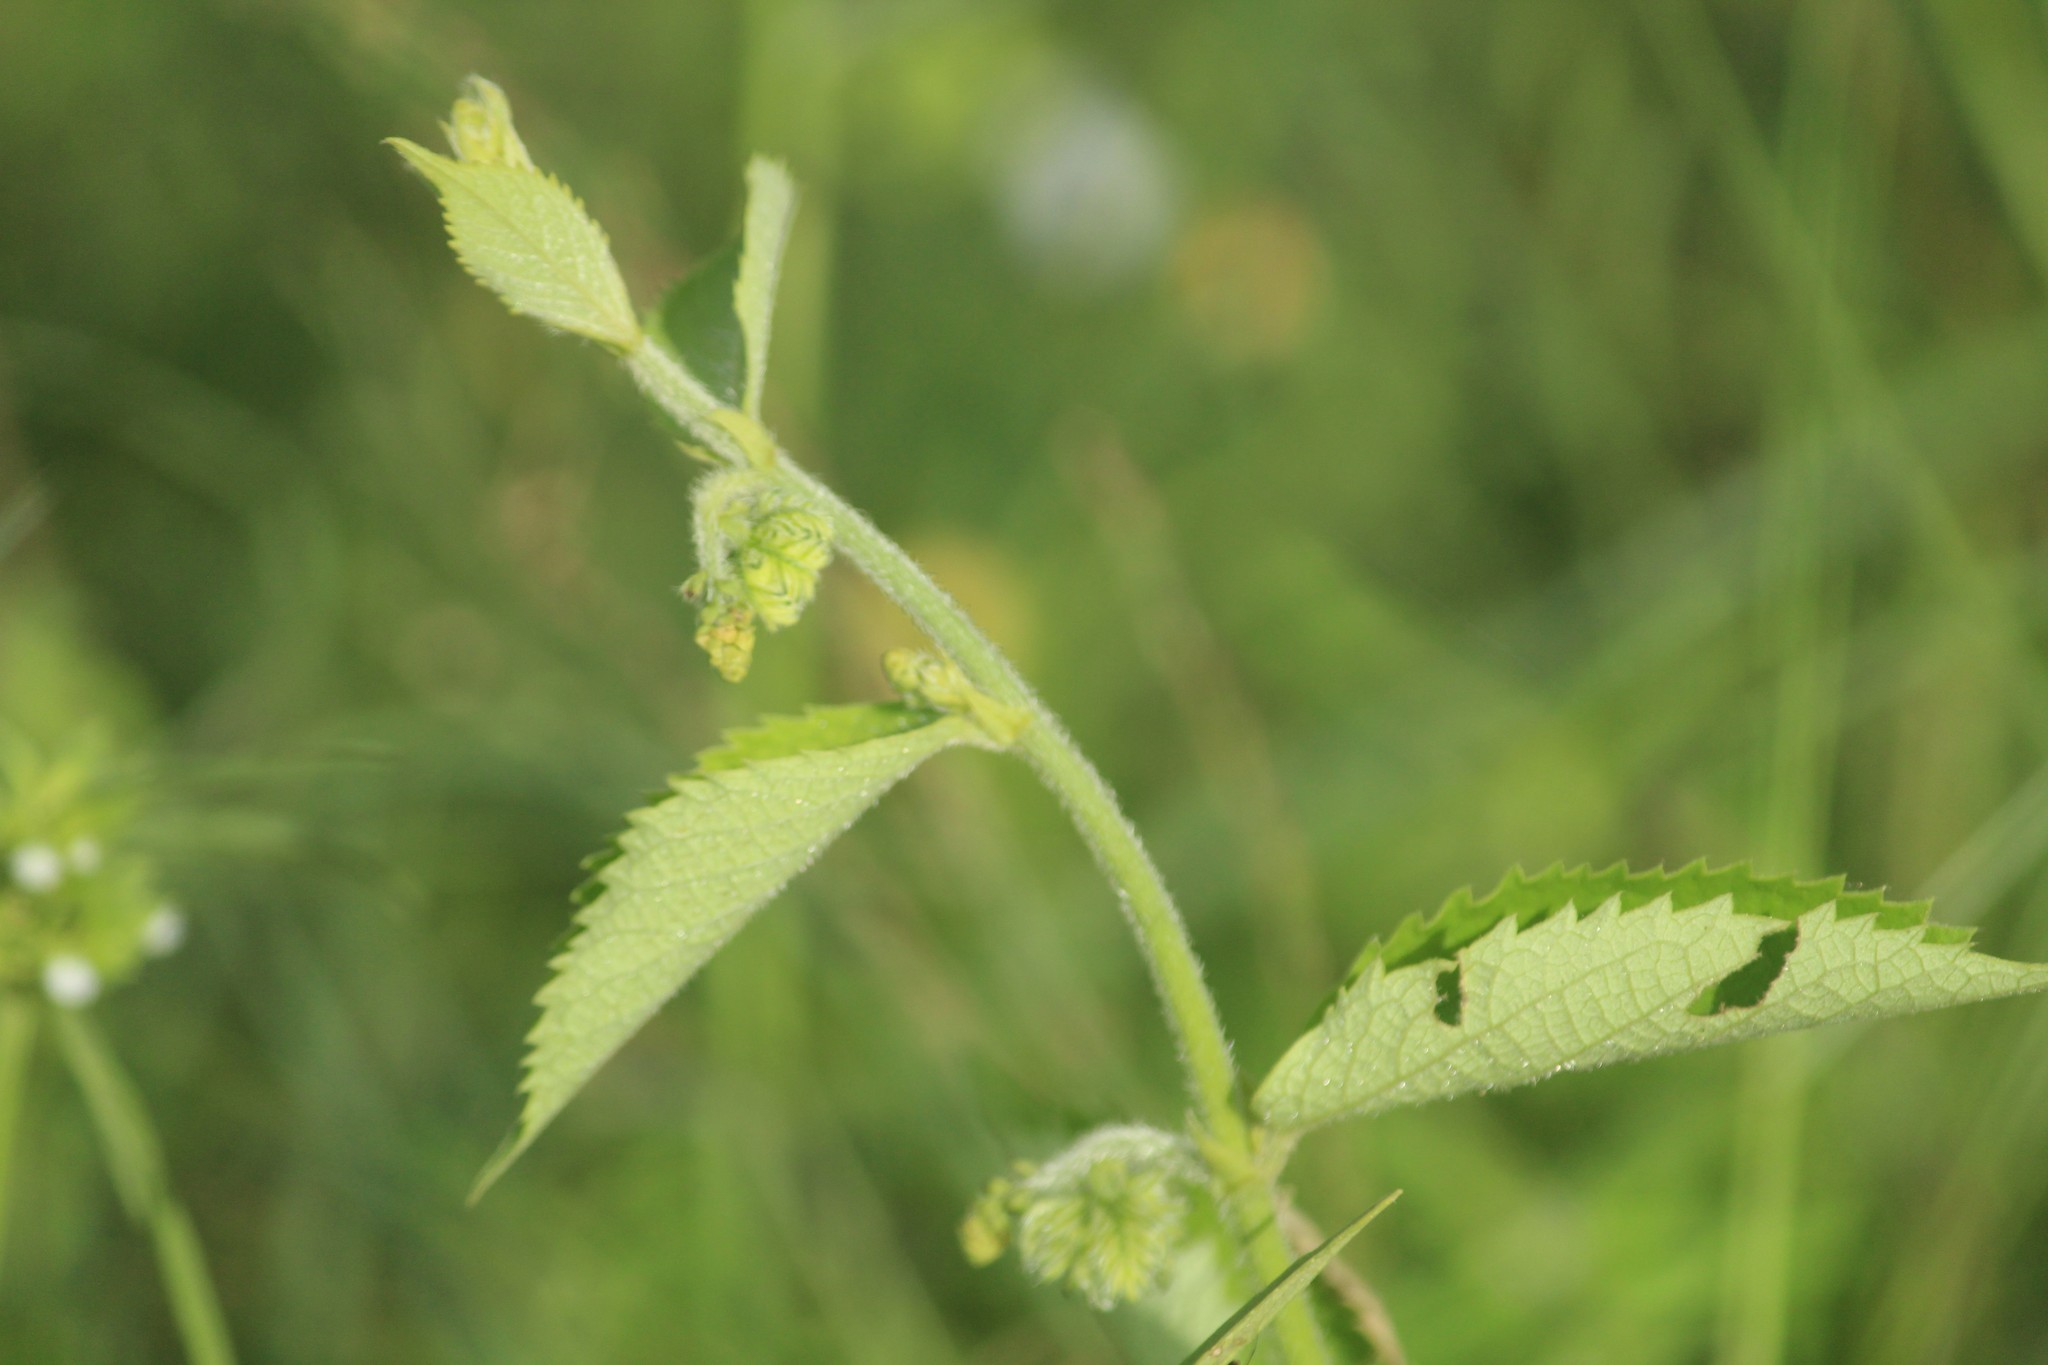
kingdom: Plantae
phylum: Tracheophyta
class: Magnoliopsida
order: Malpighiales
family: Euphorbiaceae
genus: Tragia
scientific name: Tragia involucrata
